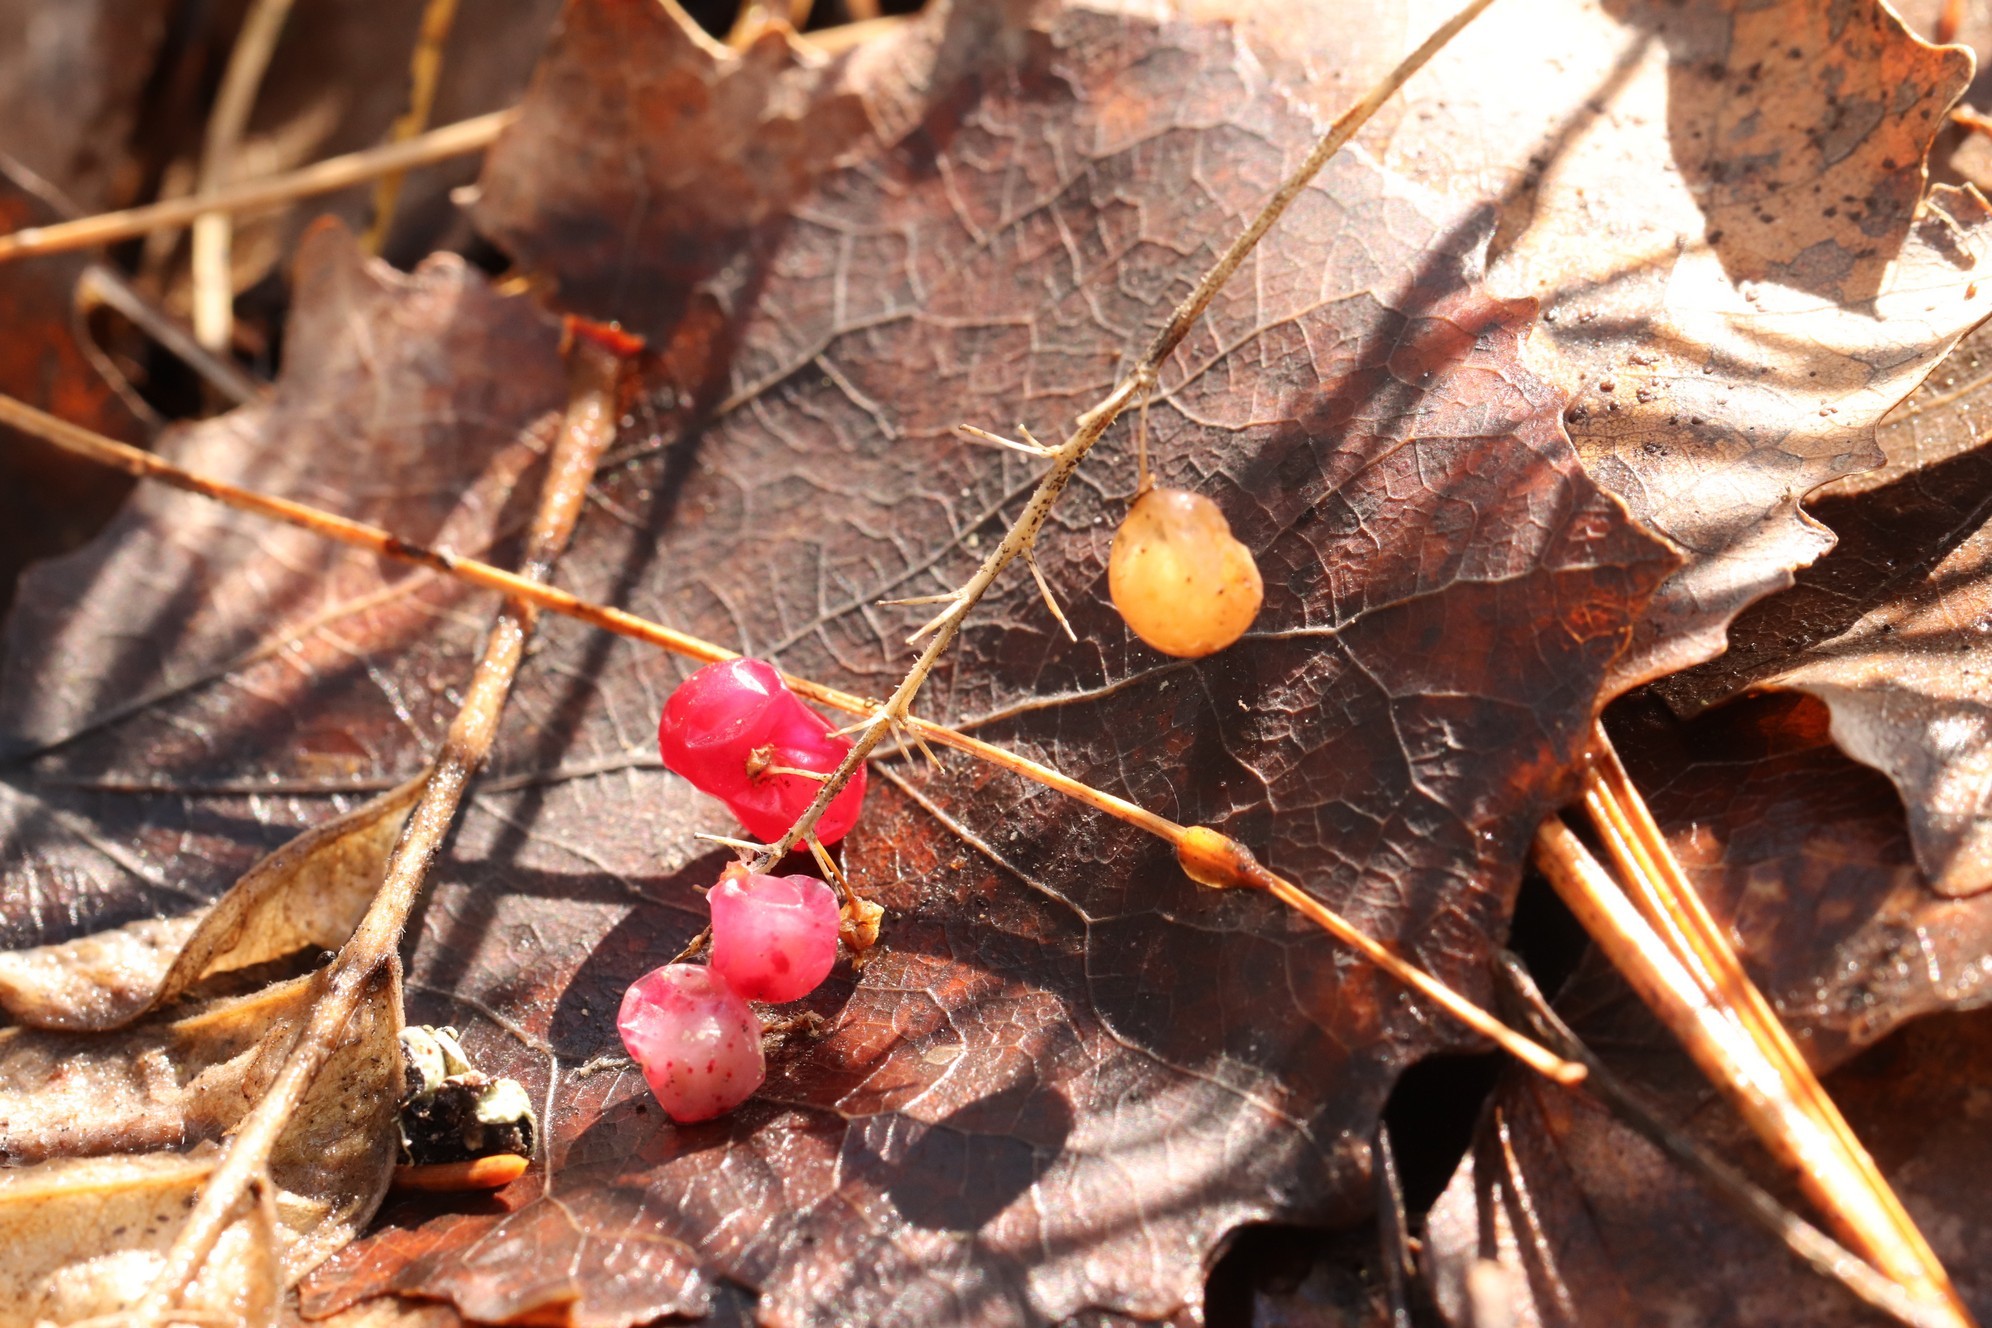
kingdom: Plantae
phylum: Tracheophyta
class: Liliopsida
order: Asparagales
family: Asparagaceae
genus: Maianthemum
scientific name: Maianthemum bifolium
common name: May lily
